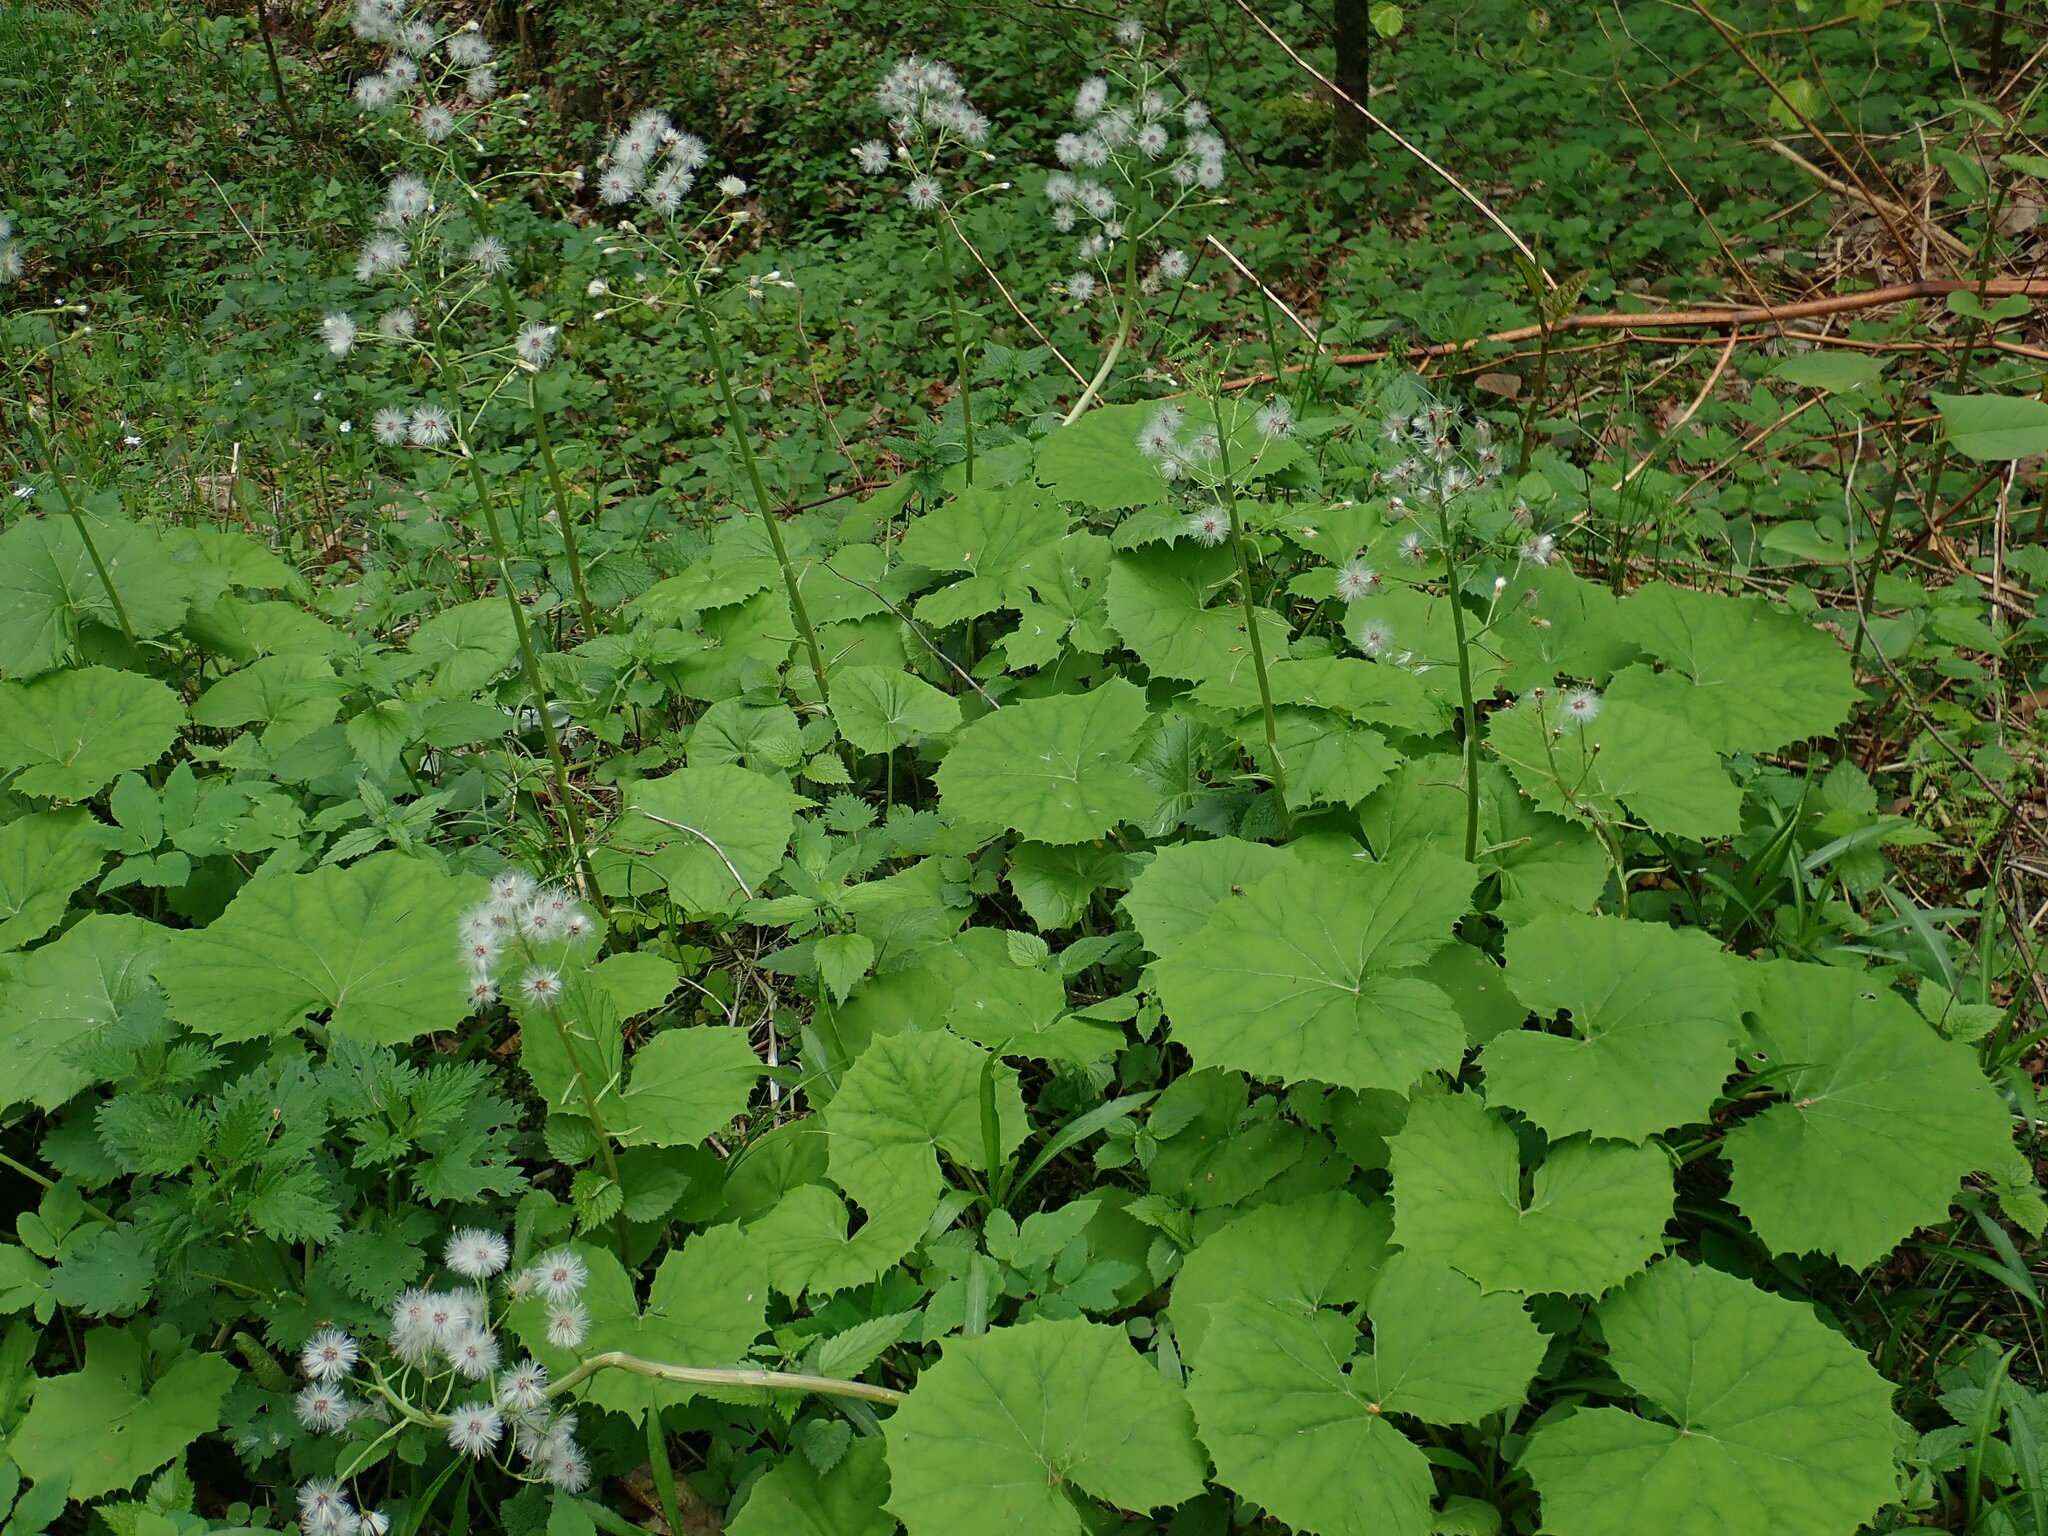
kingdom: Plantae
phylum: Tracheophyta
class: Magnoliopsida
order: Asterales
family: Asteraceae
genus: Petasites
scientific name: Petasites albus
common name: White butterbur
